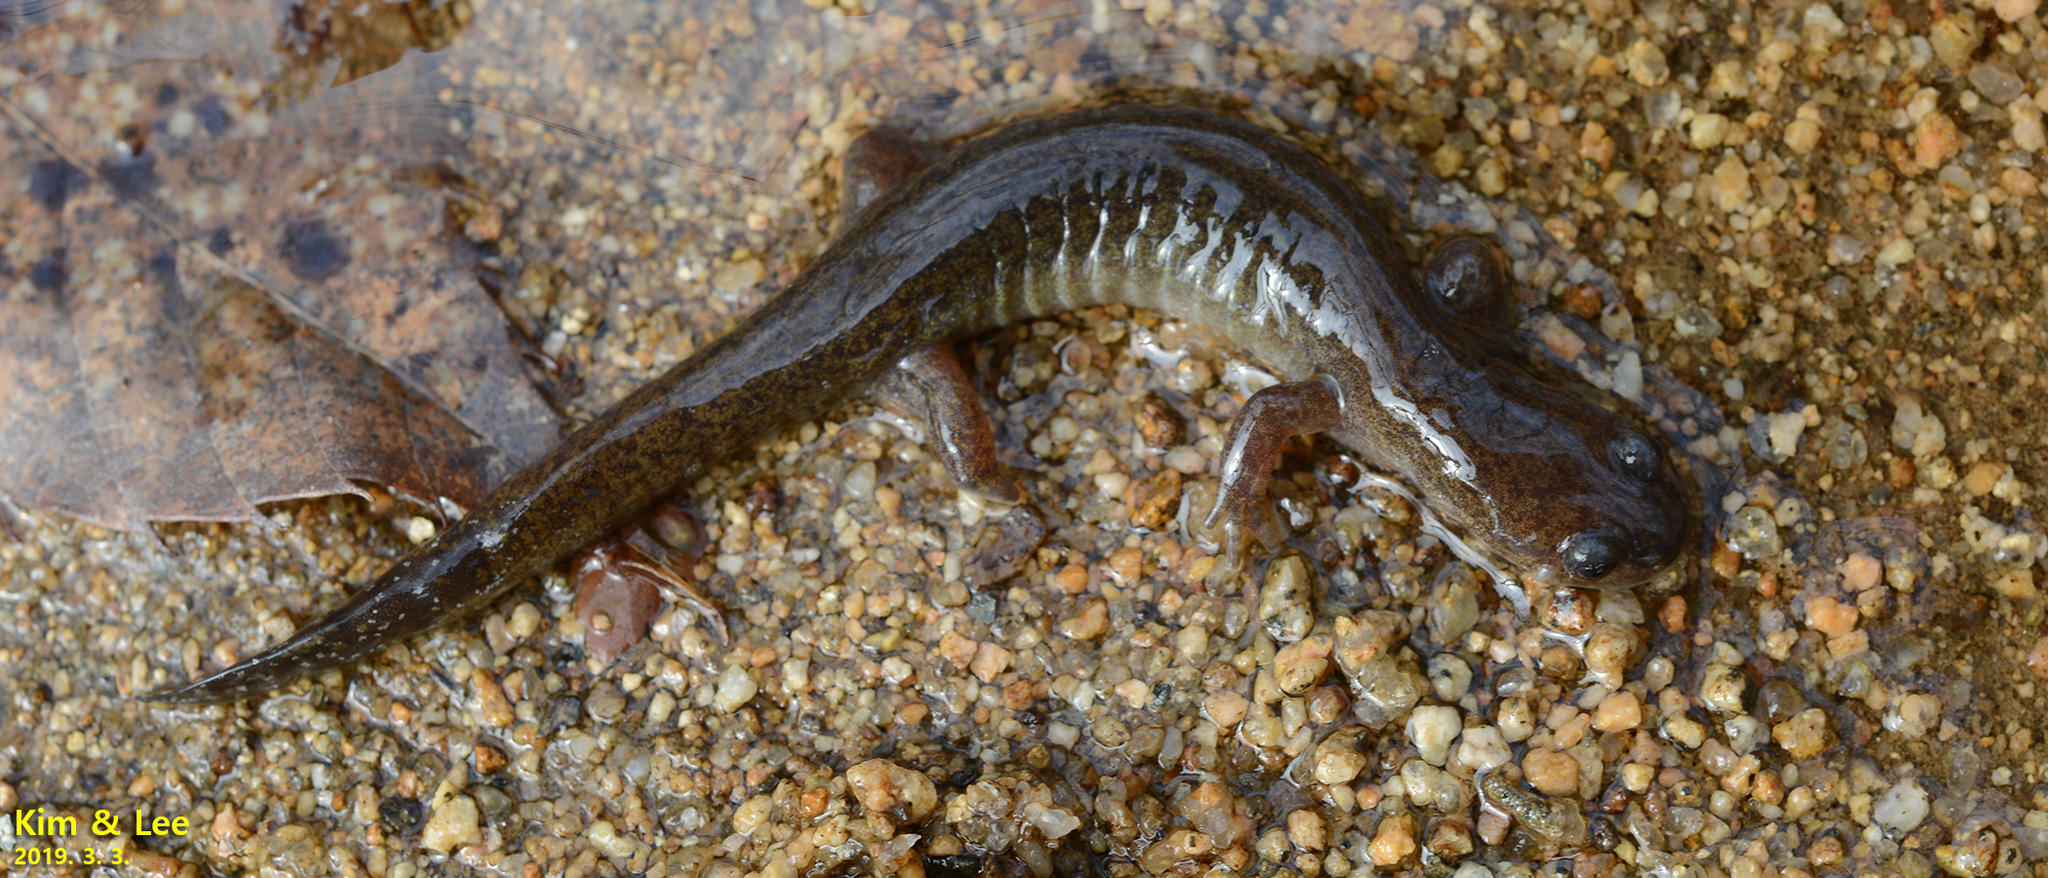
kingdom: Animalia
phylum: Chordata
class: Amphibia
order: Caudata
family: Hynobiidae
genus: Hynobius
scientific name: Hynobius unisacculus
